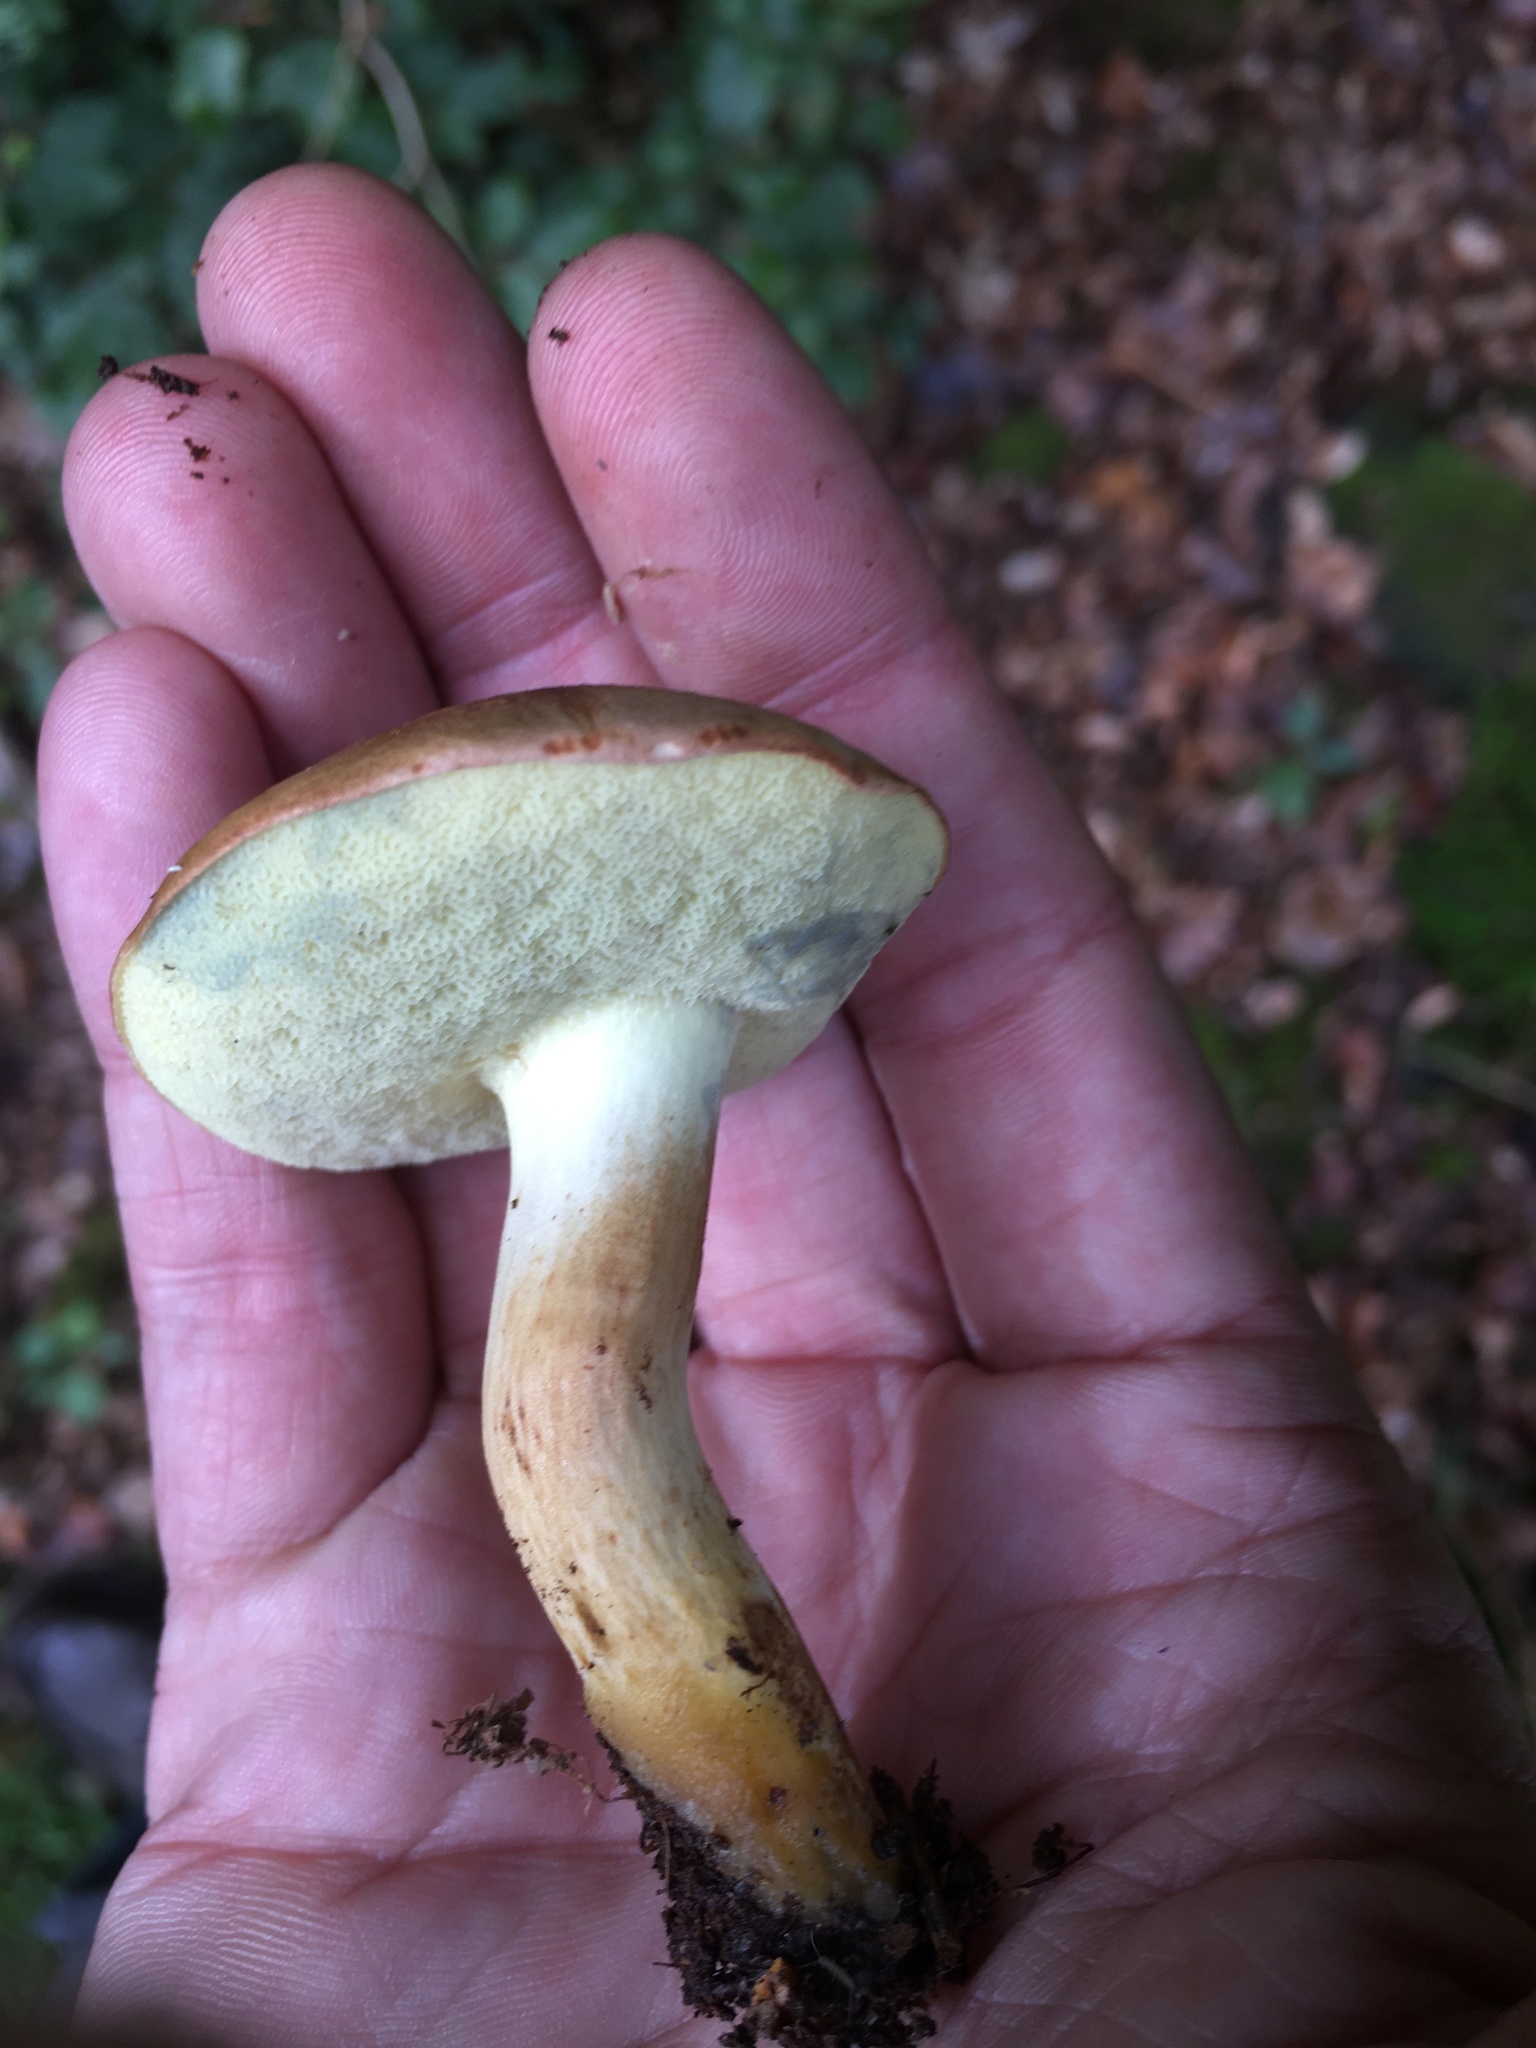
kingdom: Fungi
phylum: Basidiomycota
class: Agaricomycetes
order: Boletales
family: Boletaceae
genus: Imleria
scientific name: Imleria badia
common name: Bay bolete
